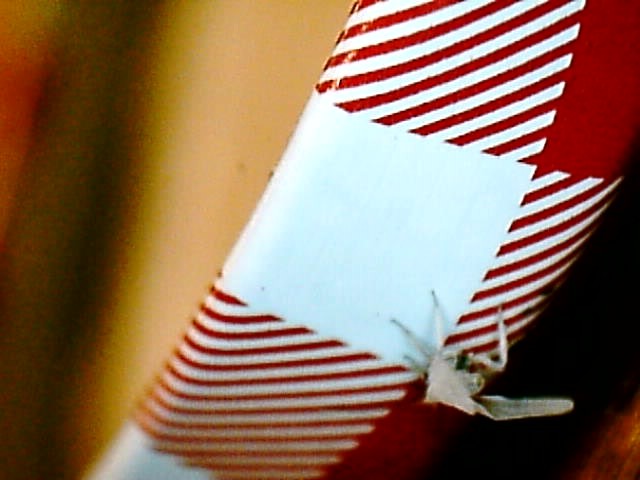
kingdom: Animalia
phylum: Arthropoda
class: Insecta
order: Neuroptera
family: Coniopterygidae
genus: Conwentzia
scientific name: Conwentzia psociformis
